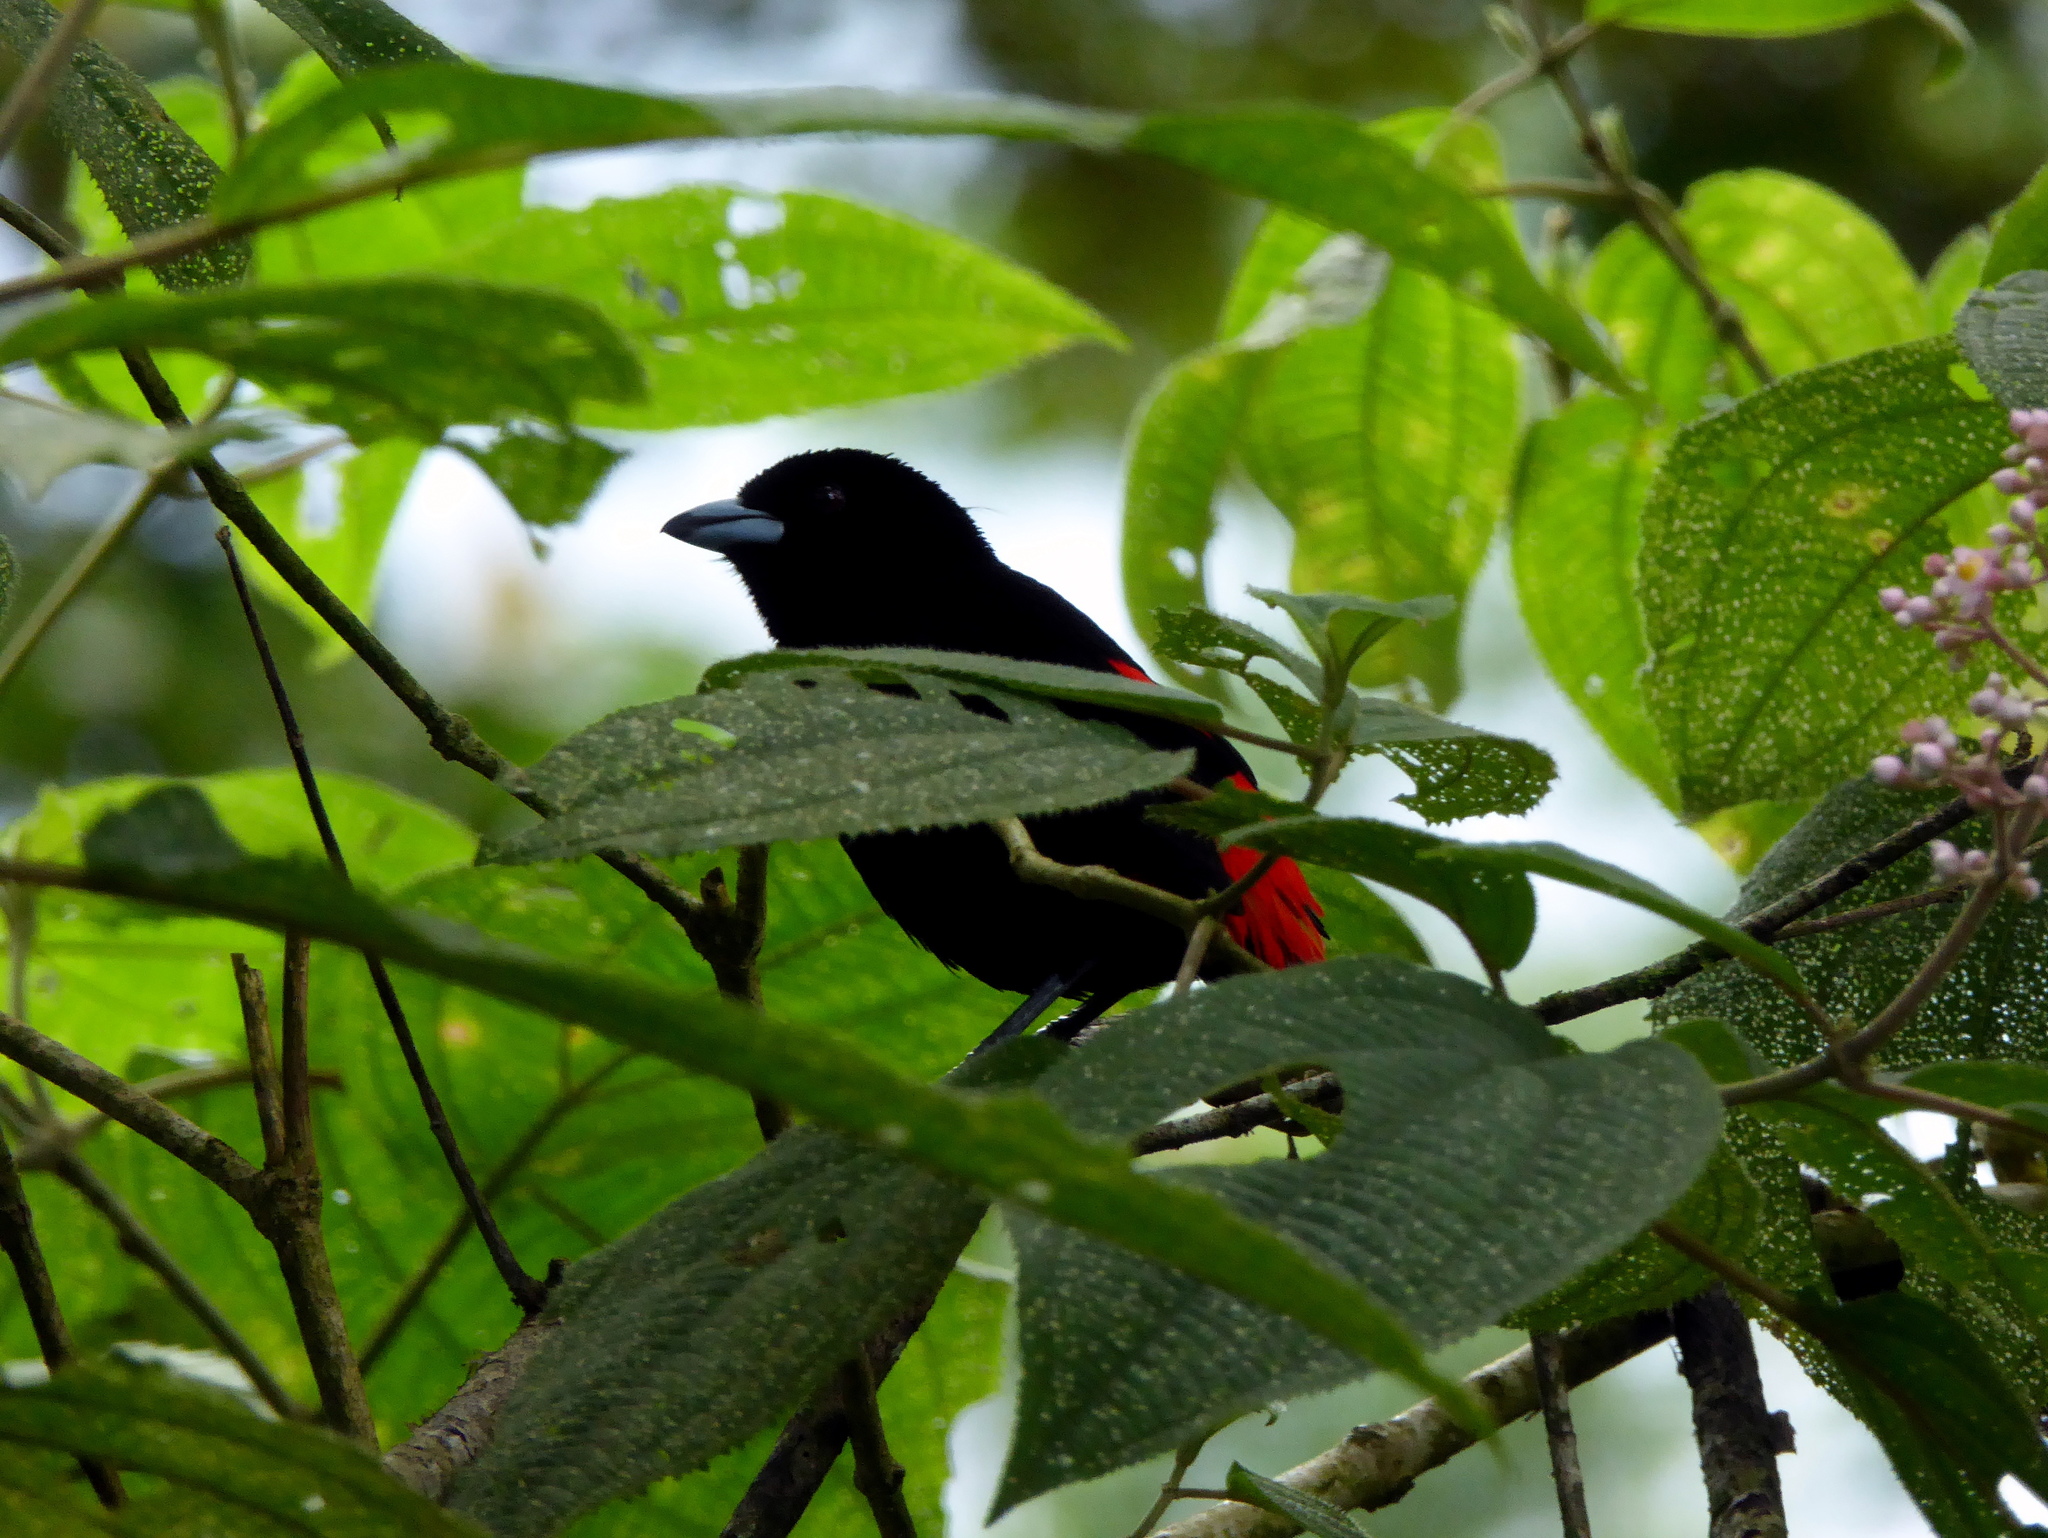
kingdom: Animalia
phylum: Chordata
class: Aves
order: Passeriformes
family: Thraupidae
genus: Ramphocelus
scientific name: Ramphocelus passerinii
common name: Passerini's tanager
